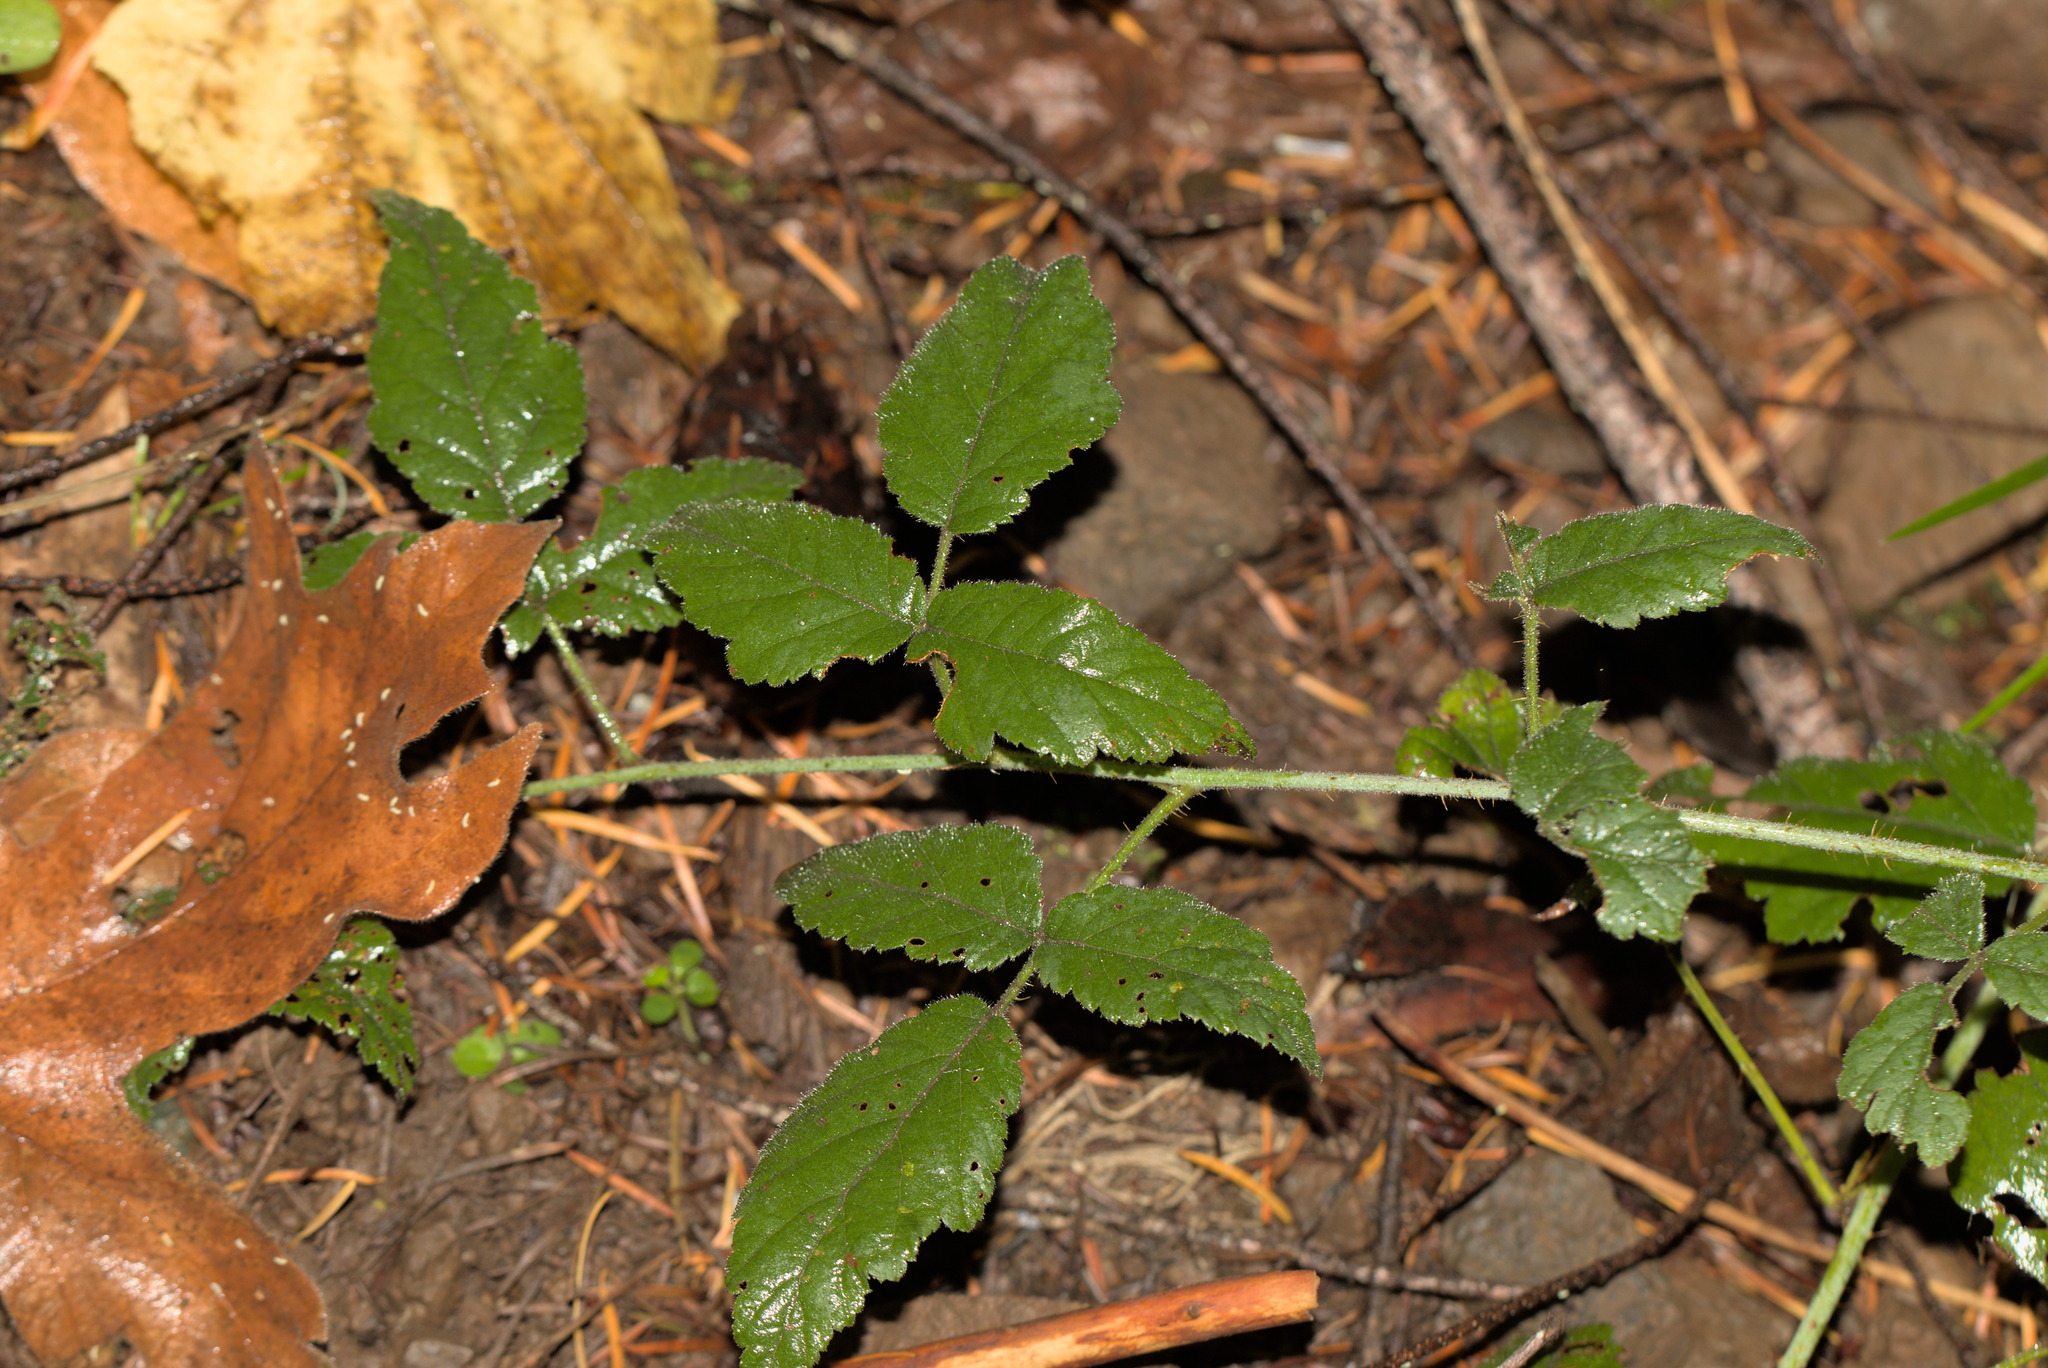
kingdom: Plantae
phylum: Tracheophyta
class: Magnoliopsida
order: Rosales
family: Rosaceae
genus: Rubus
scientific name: Rubus ursinus
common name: Pacific blackberry
